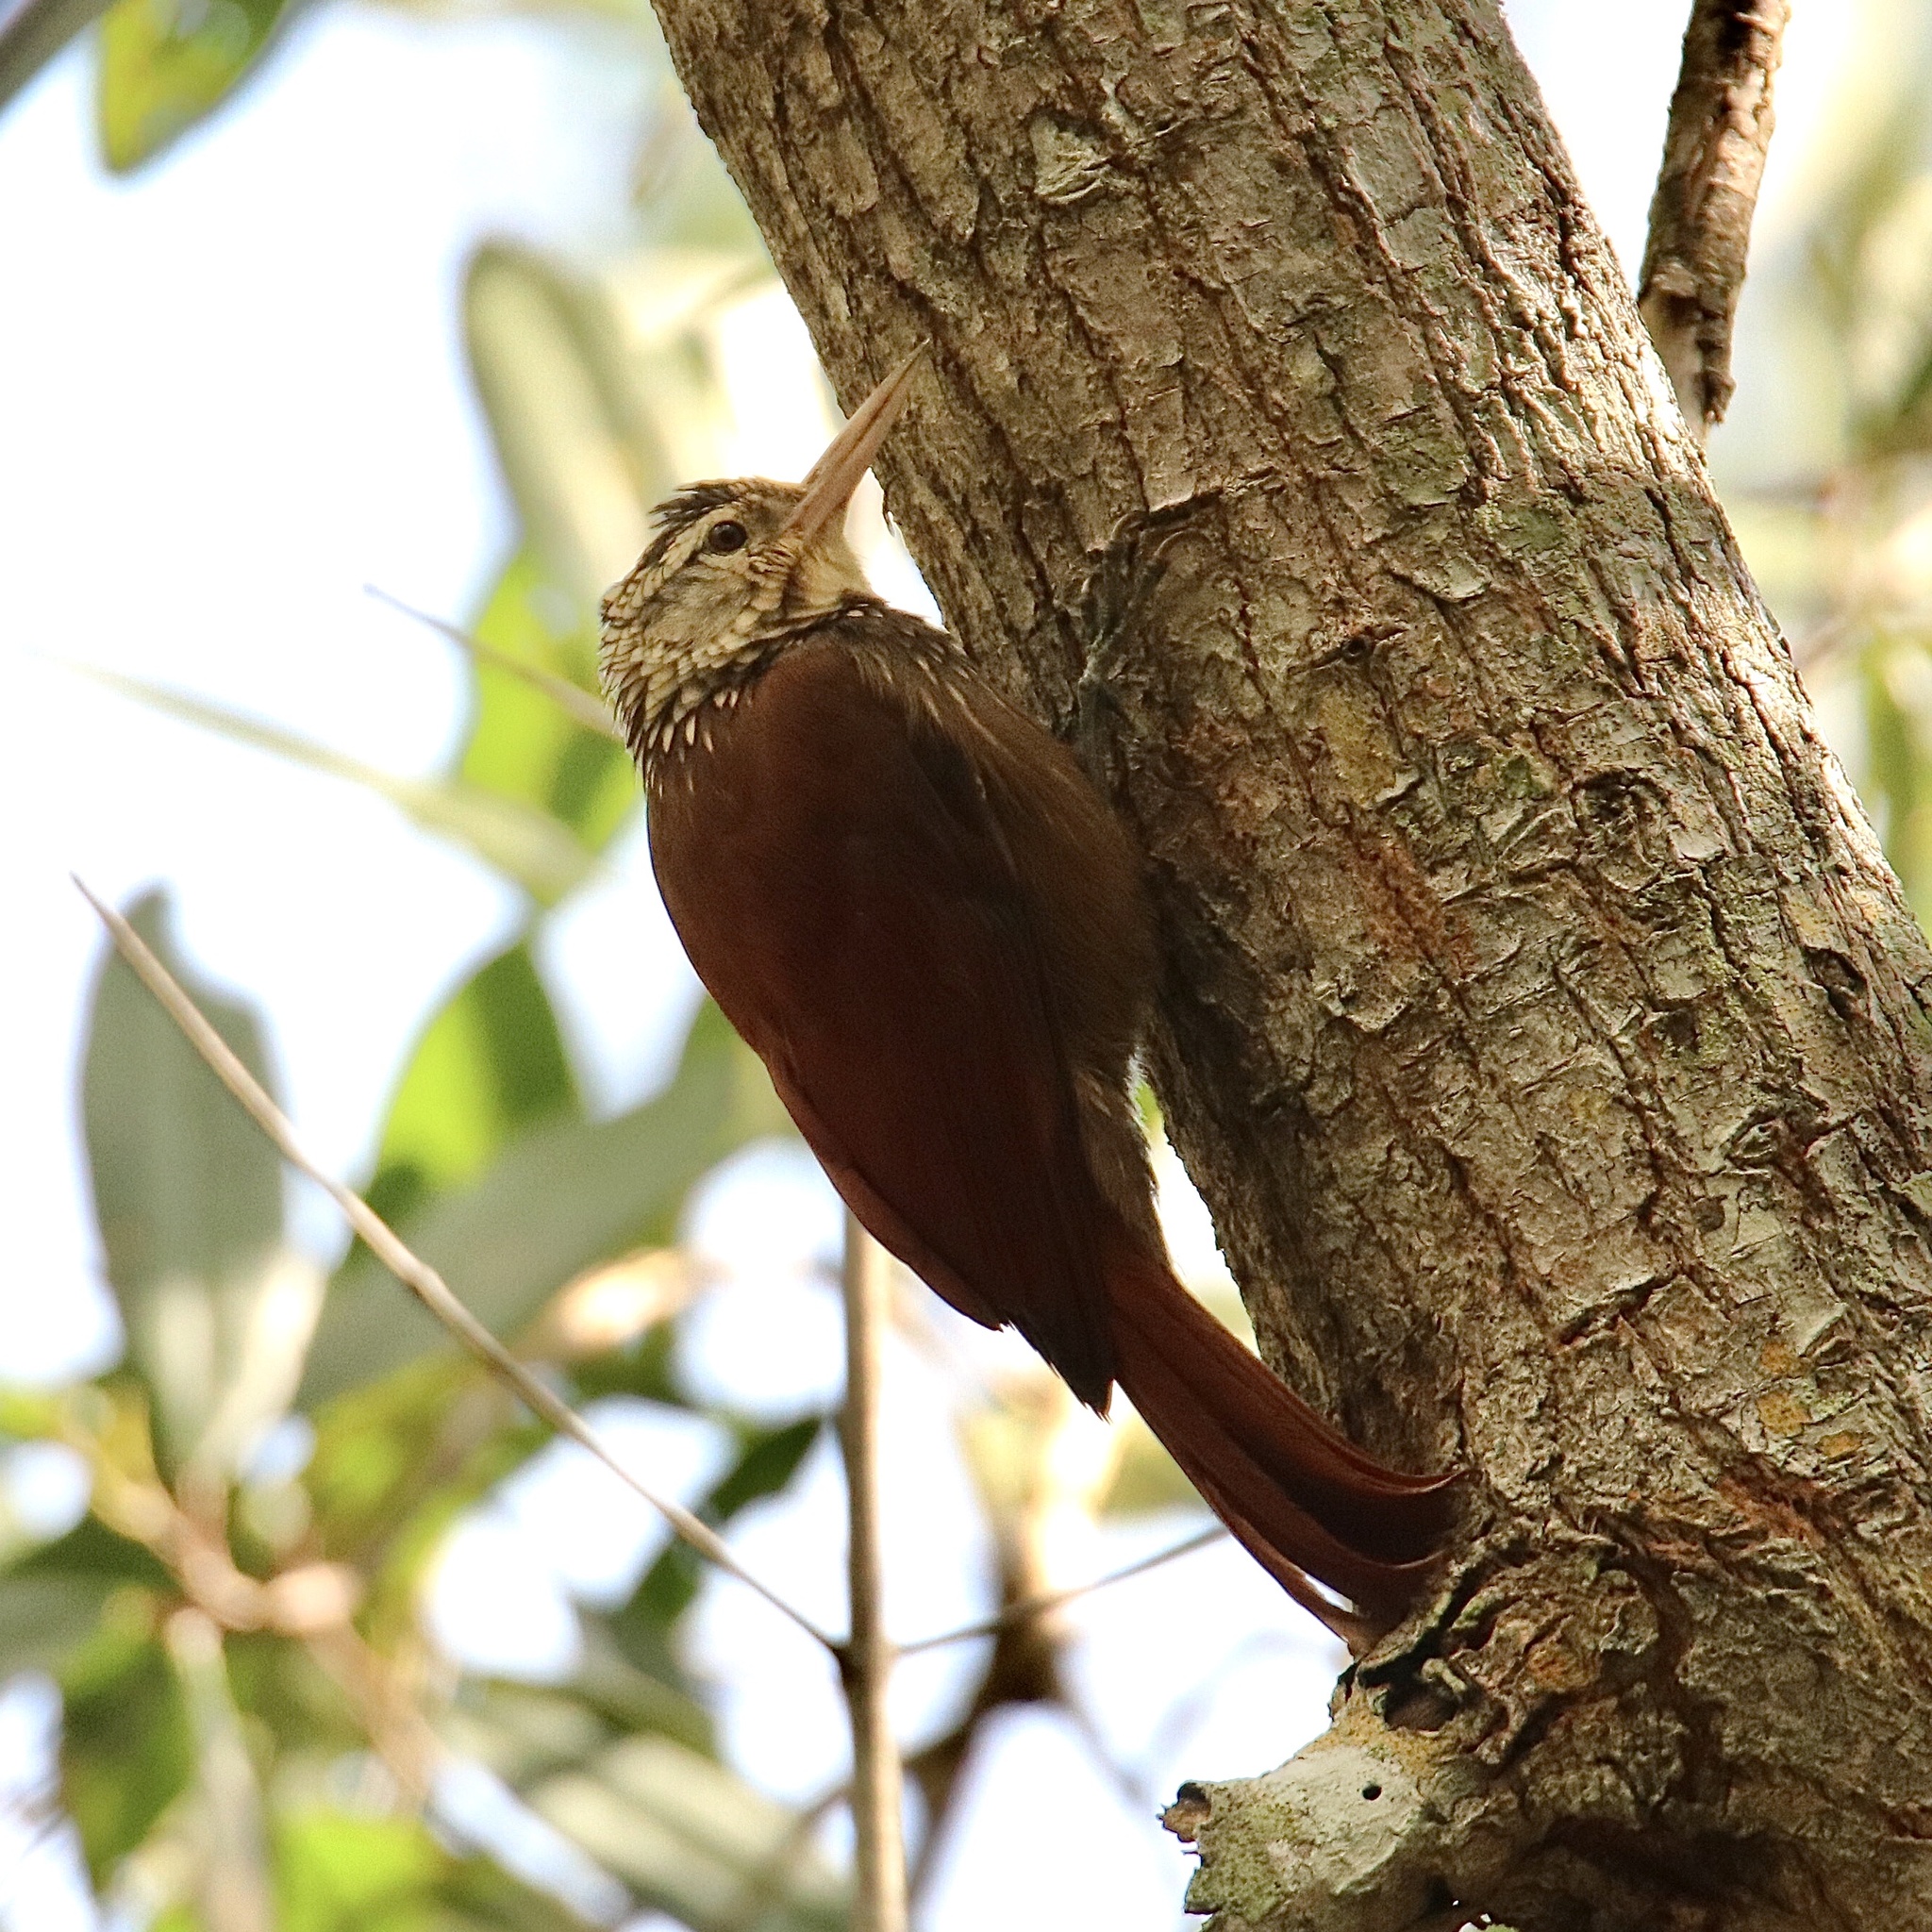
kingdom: Animalia
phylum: Chordata
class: Aves
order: Passeriformes
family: Furnariidae
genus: Xiphorhynchus
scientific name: Xiphorhynchus picus
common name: Straight-billed woodcreeper
